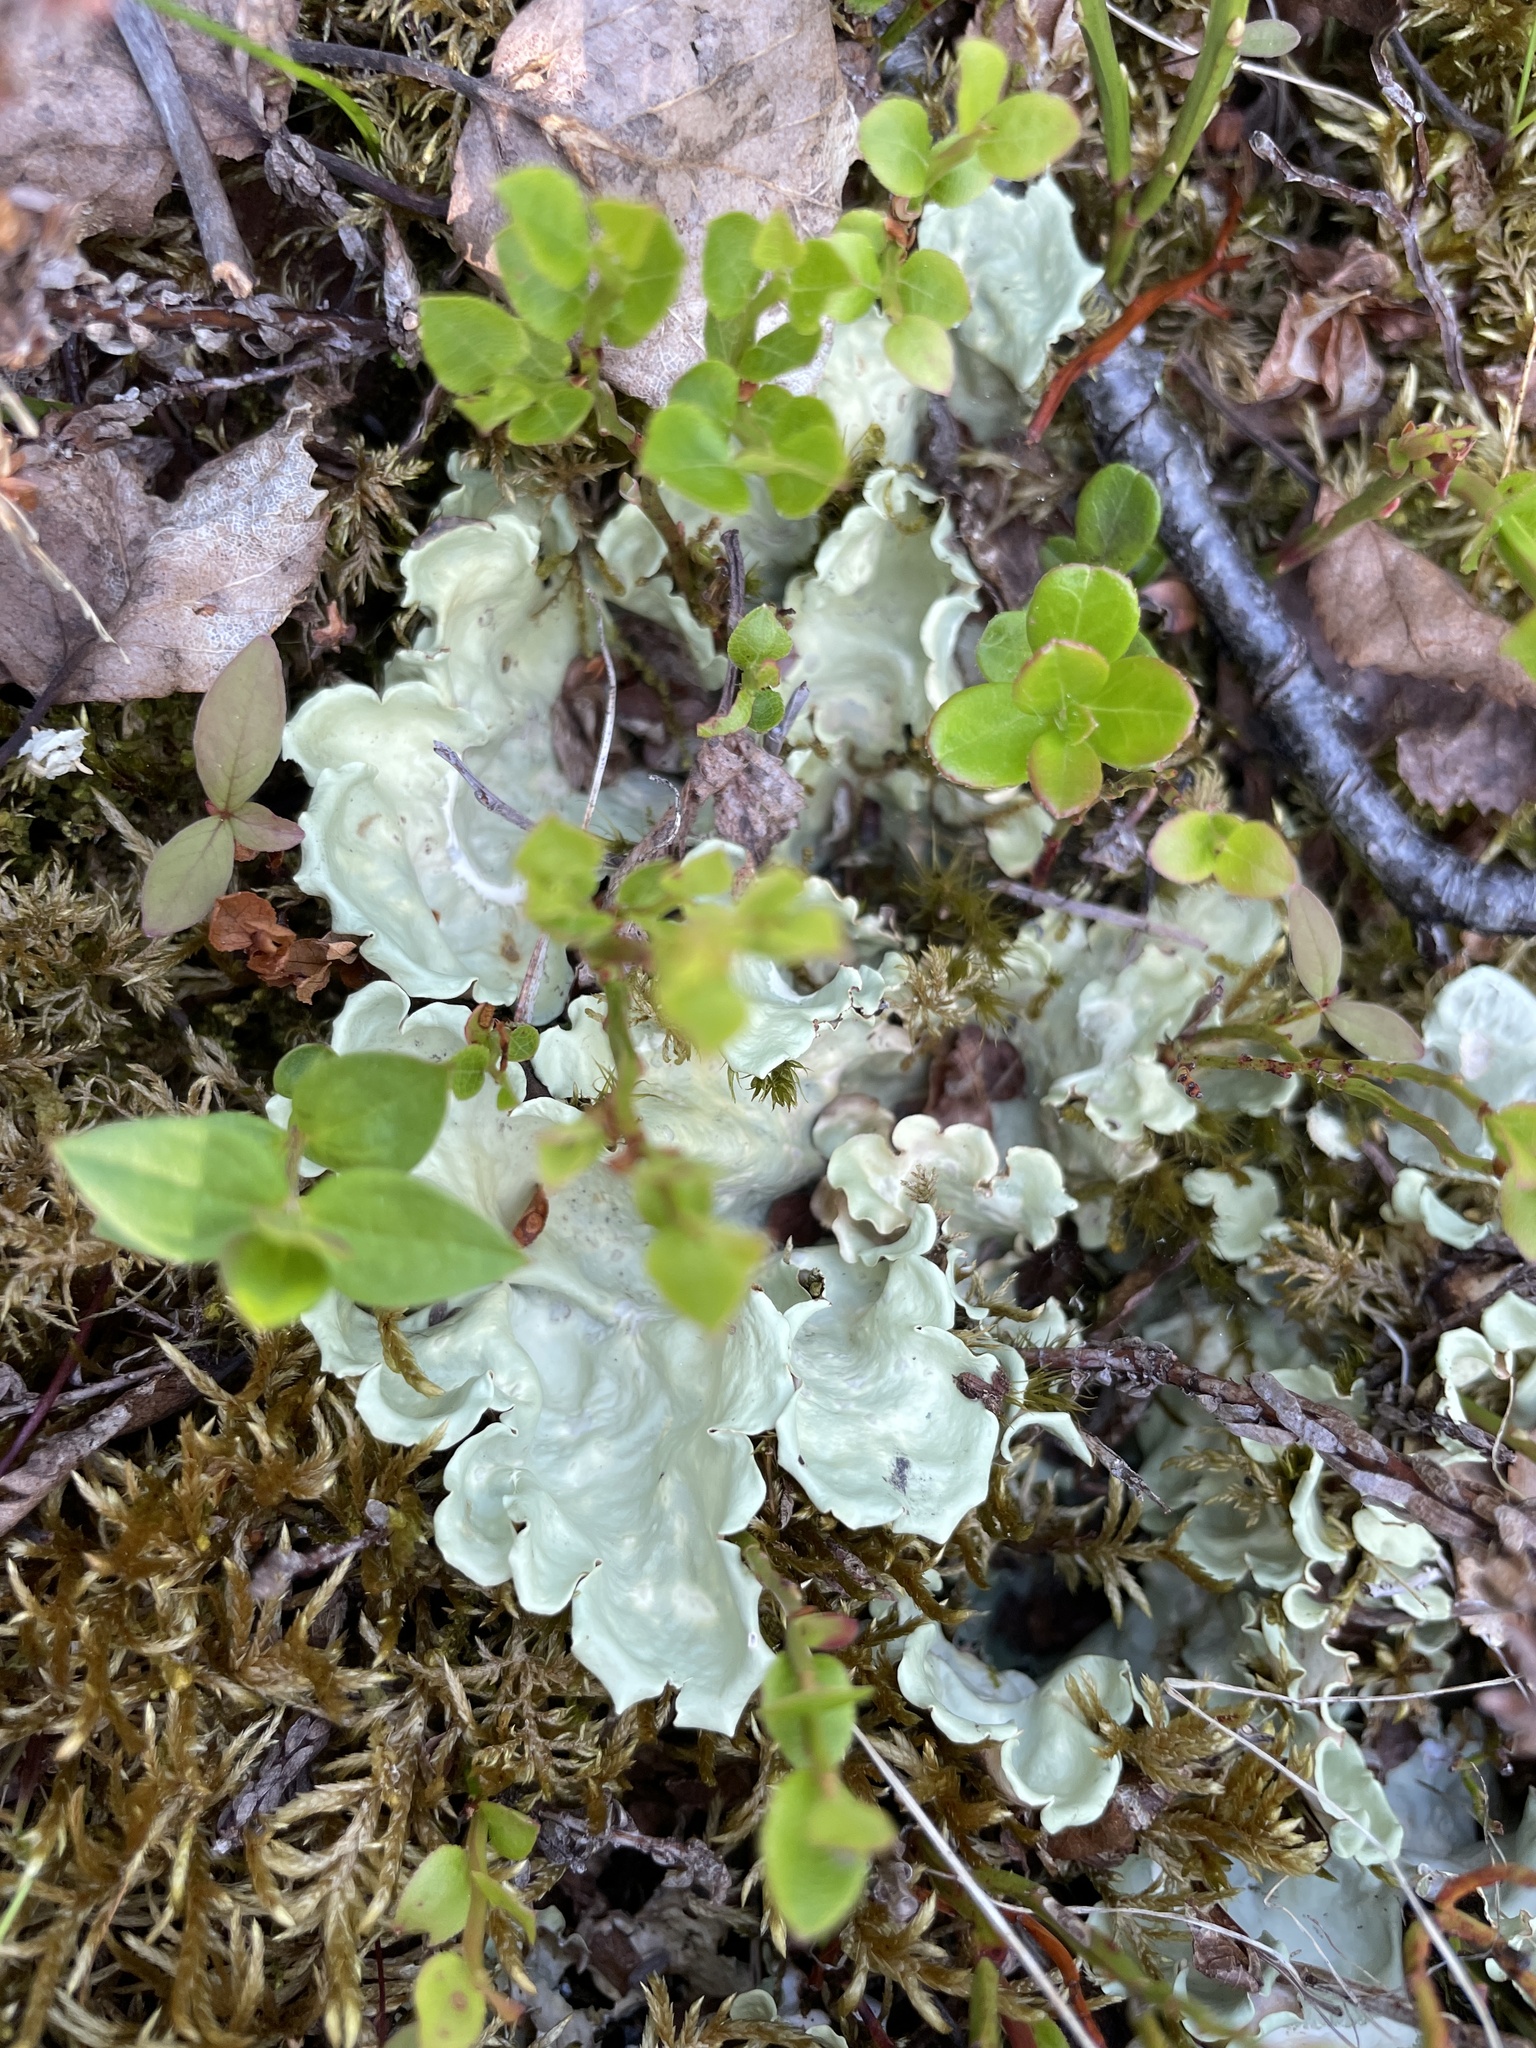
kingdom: Fungi
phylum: Ascomycota
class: Lecanoromycetes
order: Peltigerales
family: Nephromataceae
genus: Nephroma
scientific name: Nephroma arcticum
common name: Arctic kidney-lichen
